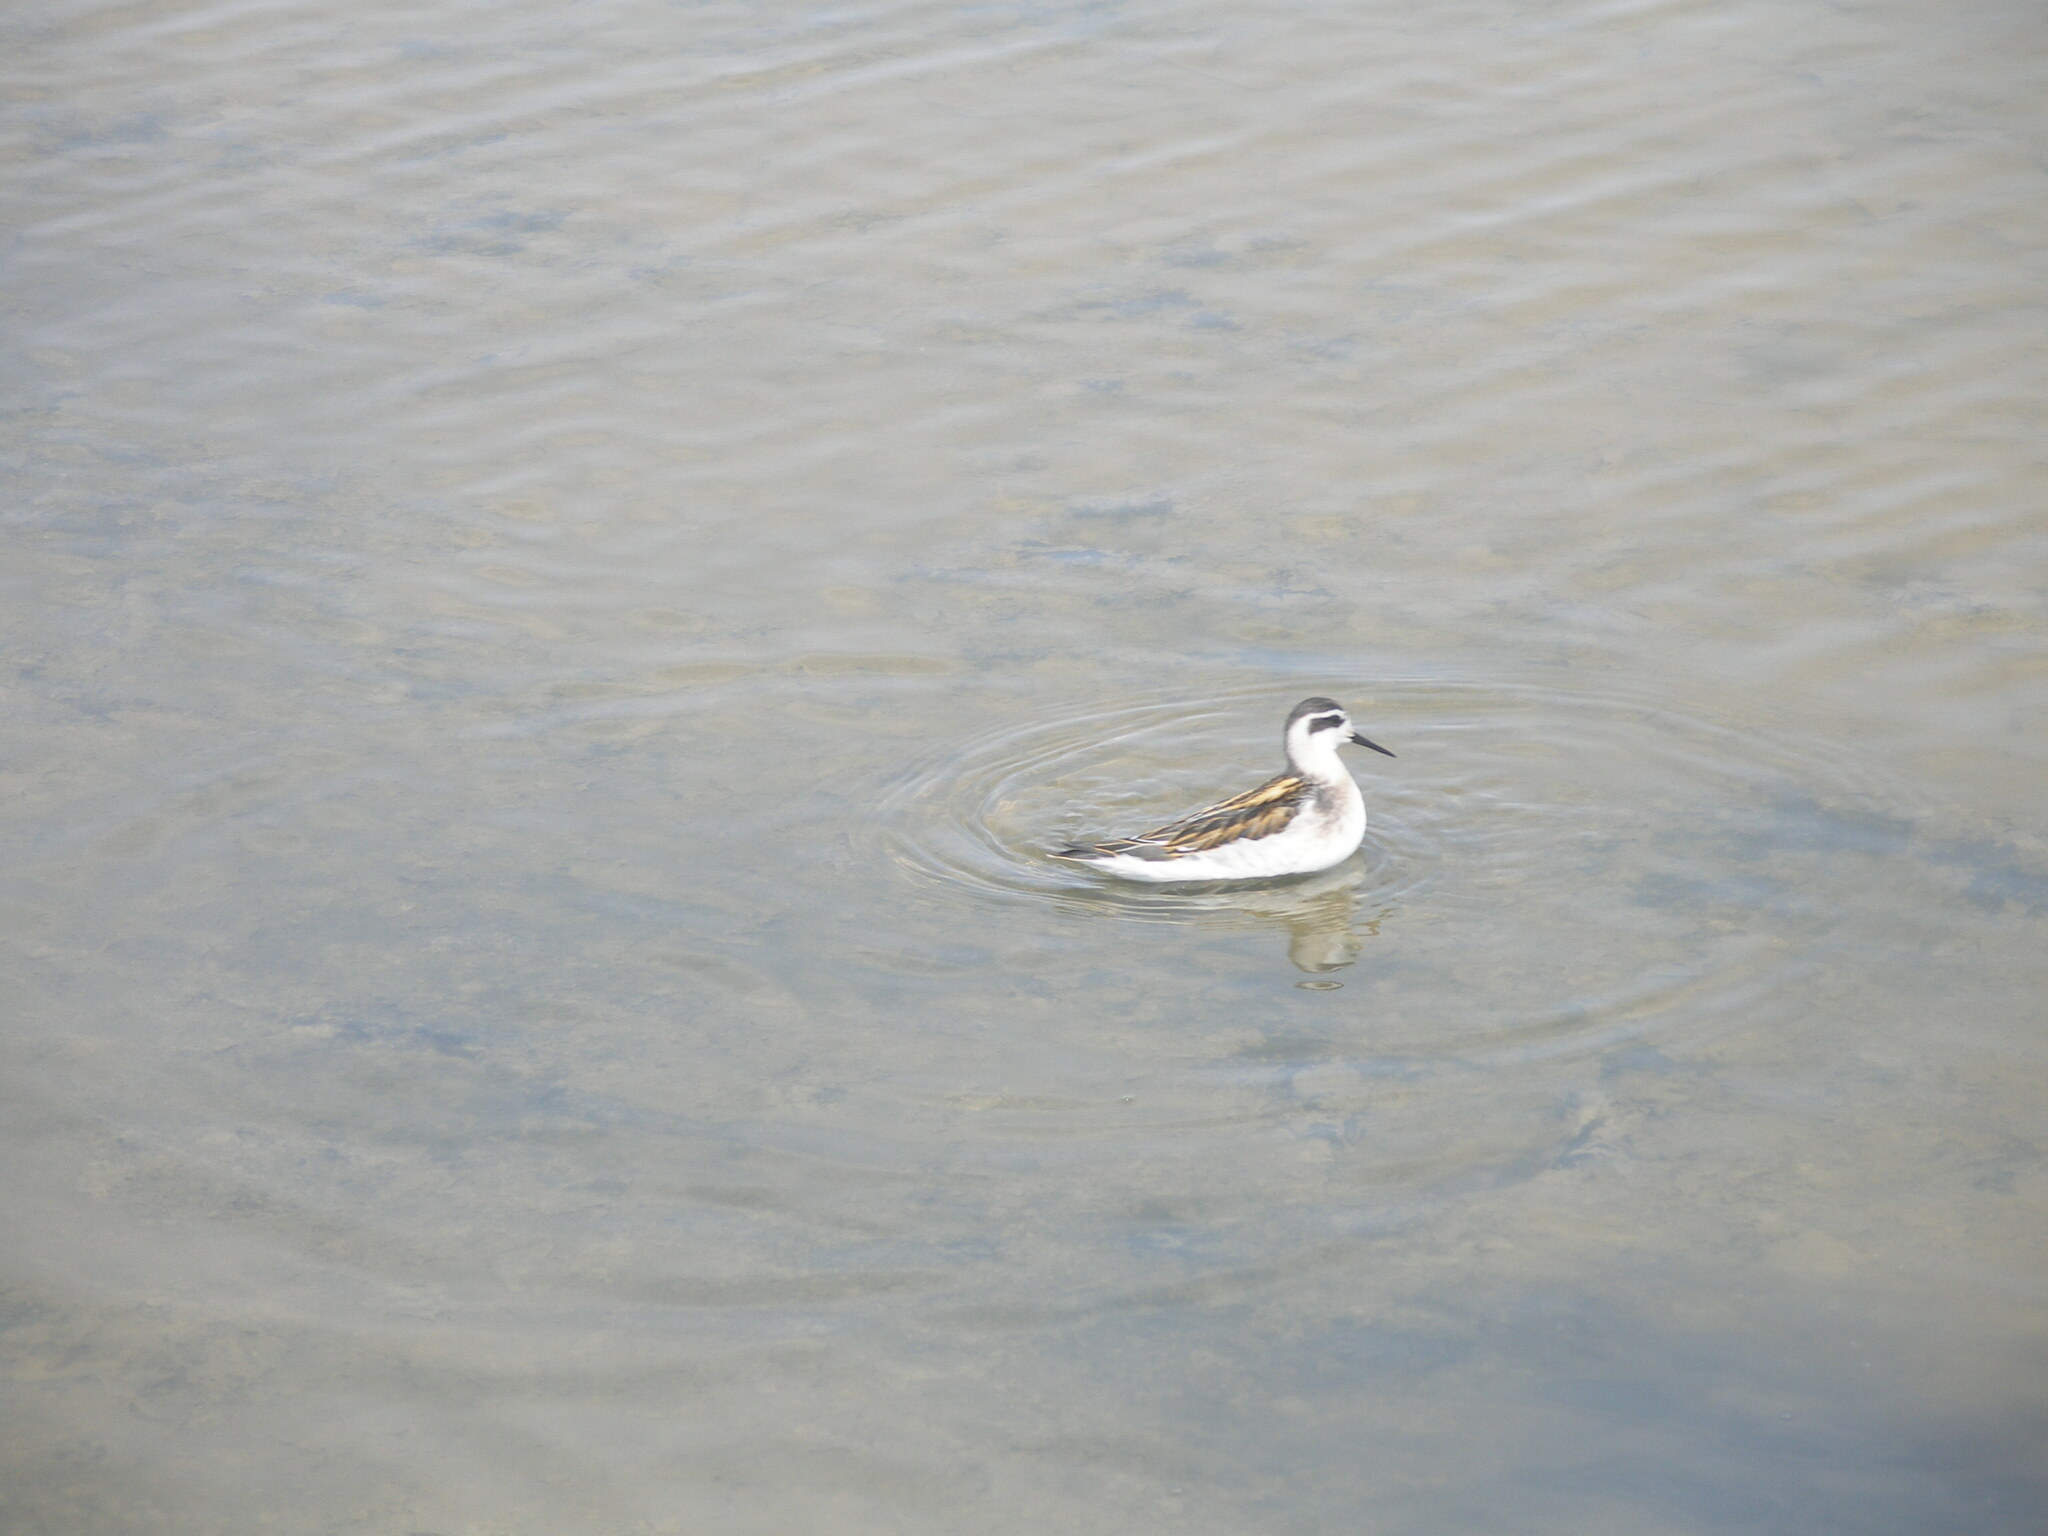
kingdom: Animalia
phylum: Chordata
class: Aves
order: Charadriiformes
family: Scolopacidae
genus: Phalaropus
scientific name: Phalaropus lobatus
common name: Red-necked phalarope
